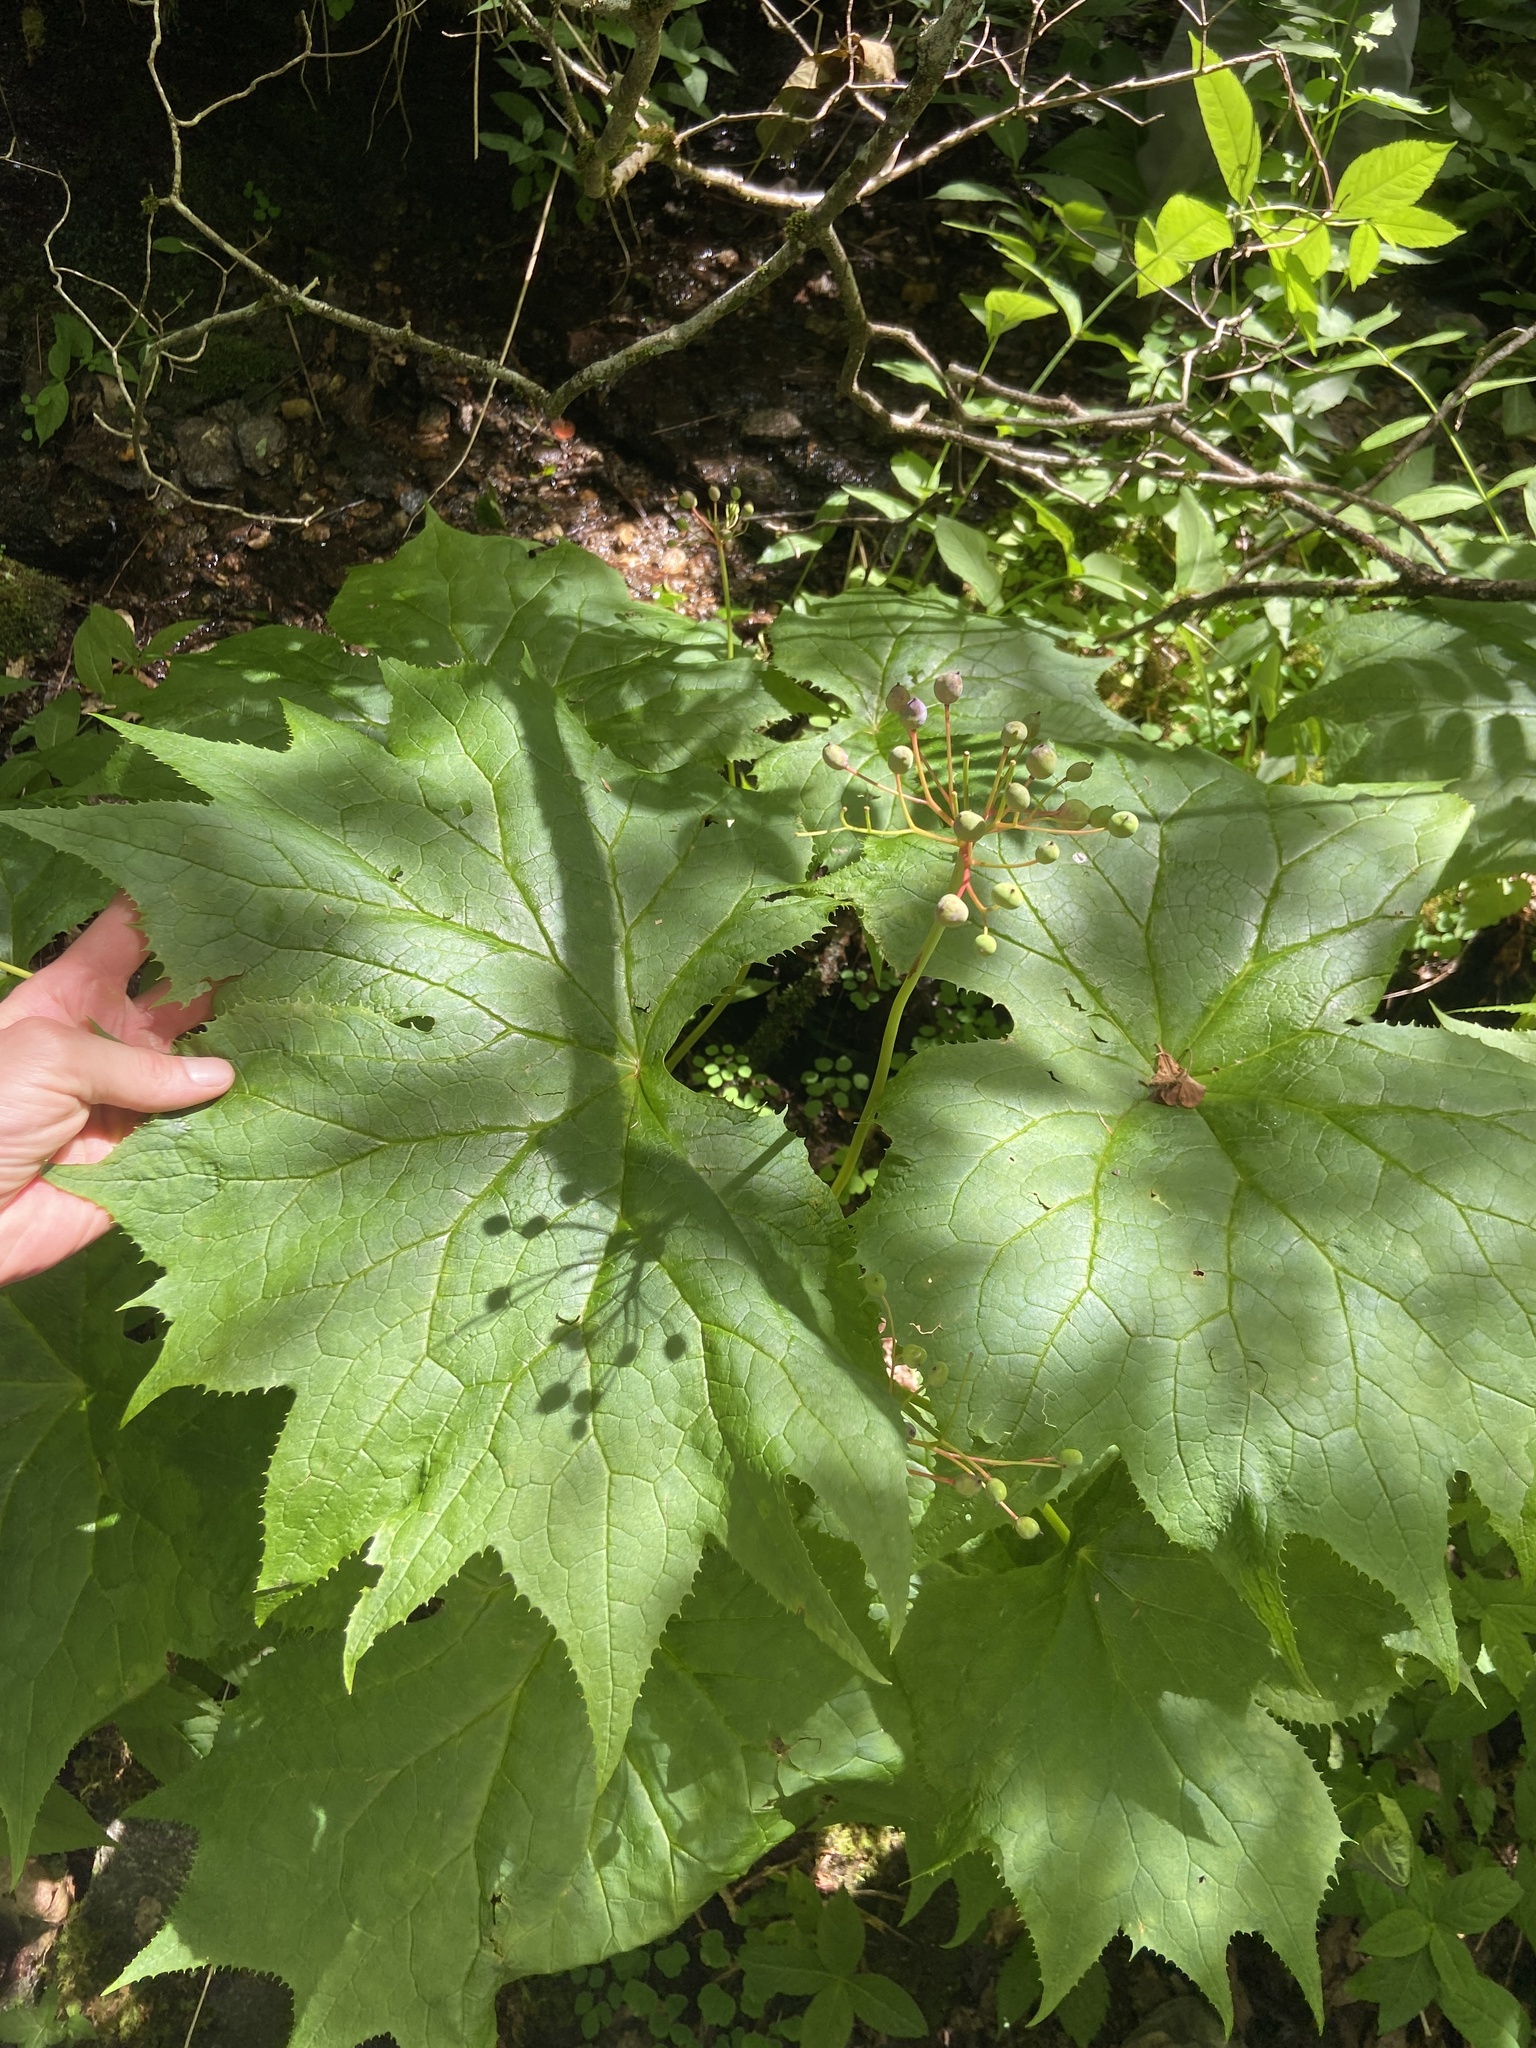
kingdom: Plantae
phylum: Tracheophyta
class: Magnoliopsida
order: Ranunculales
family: Berberidaceae
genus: Diphylleia
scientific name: Diphylleia cymosa
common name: Umbrella-leaf
